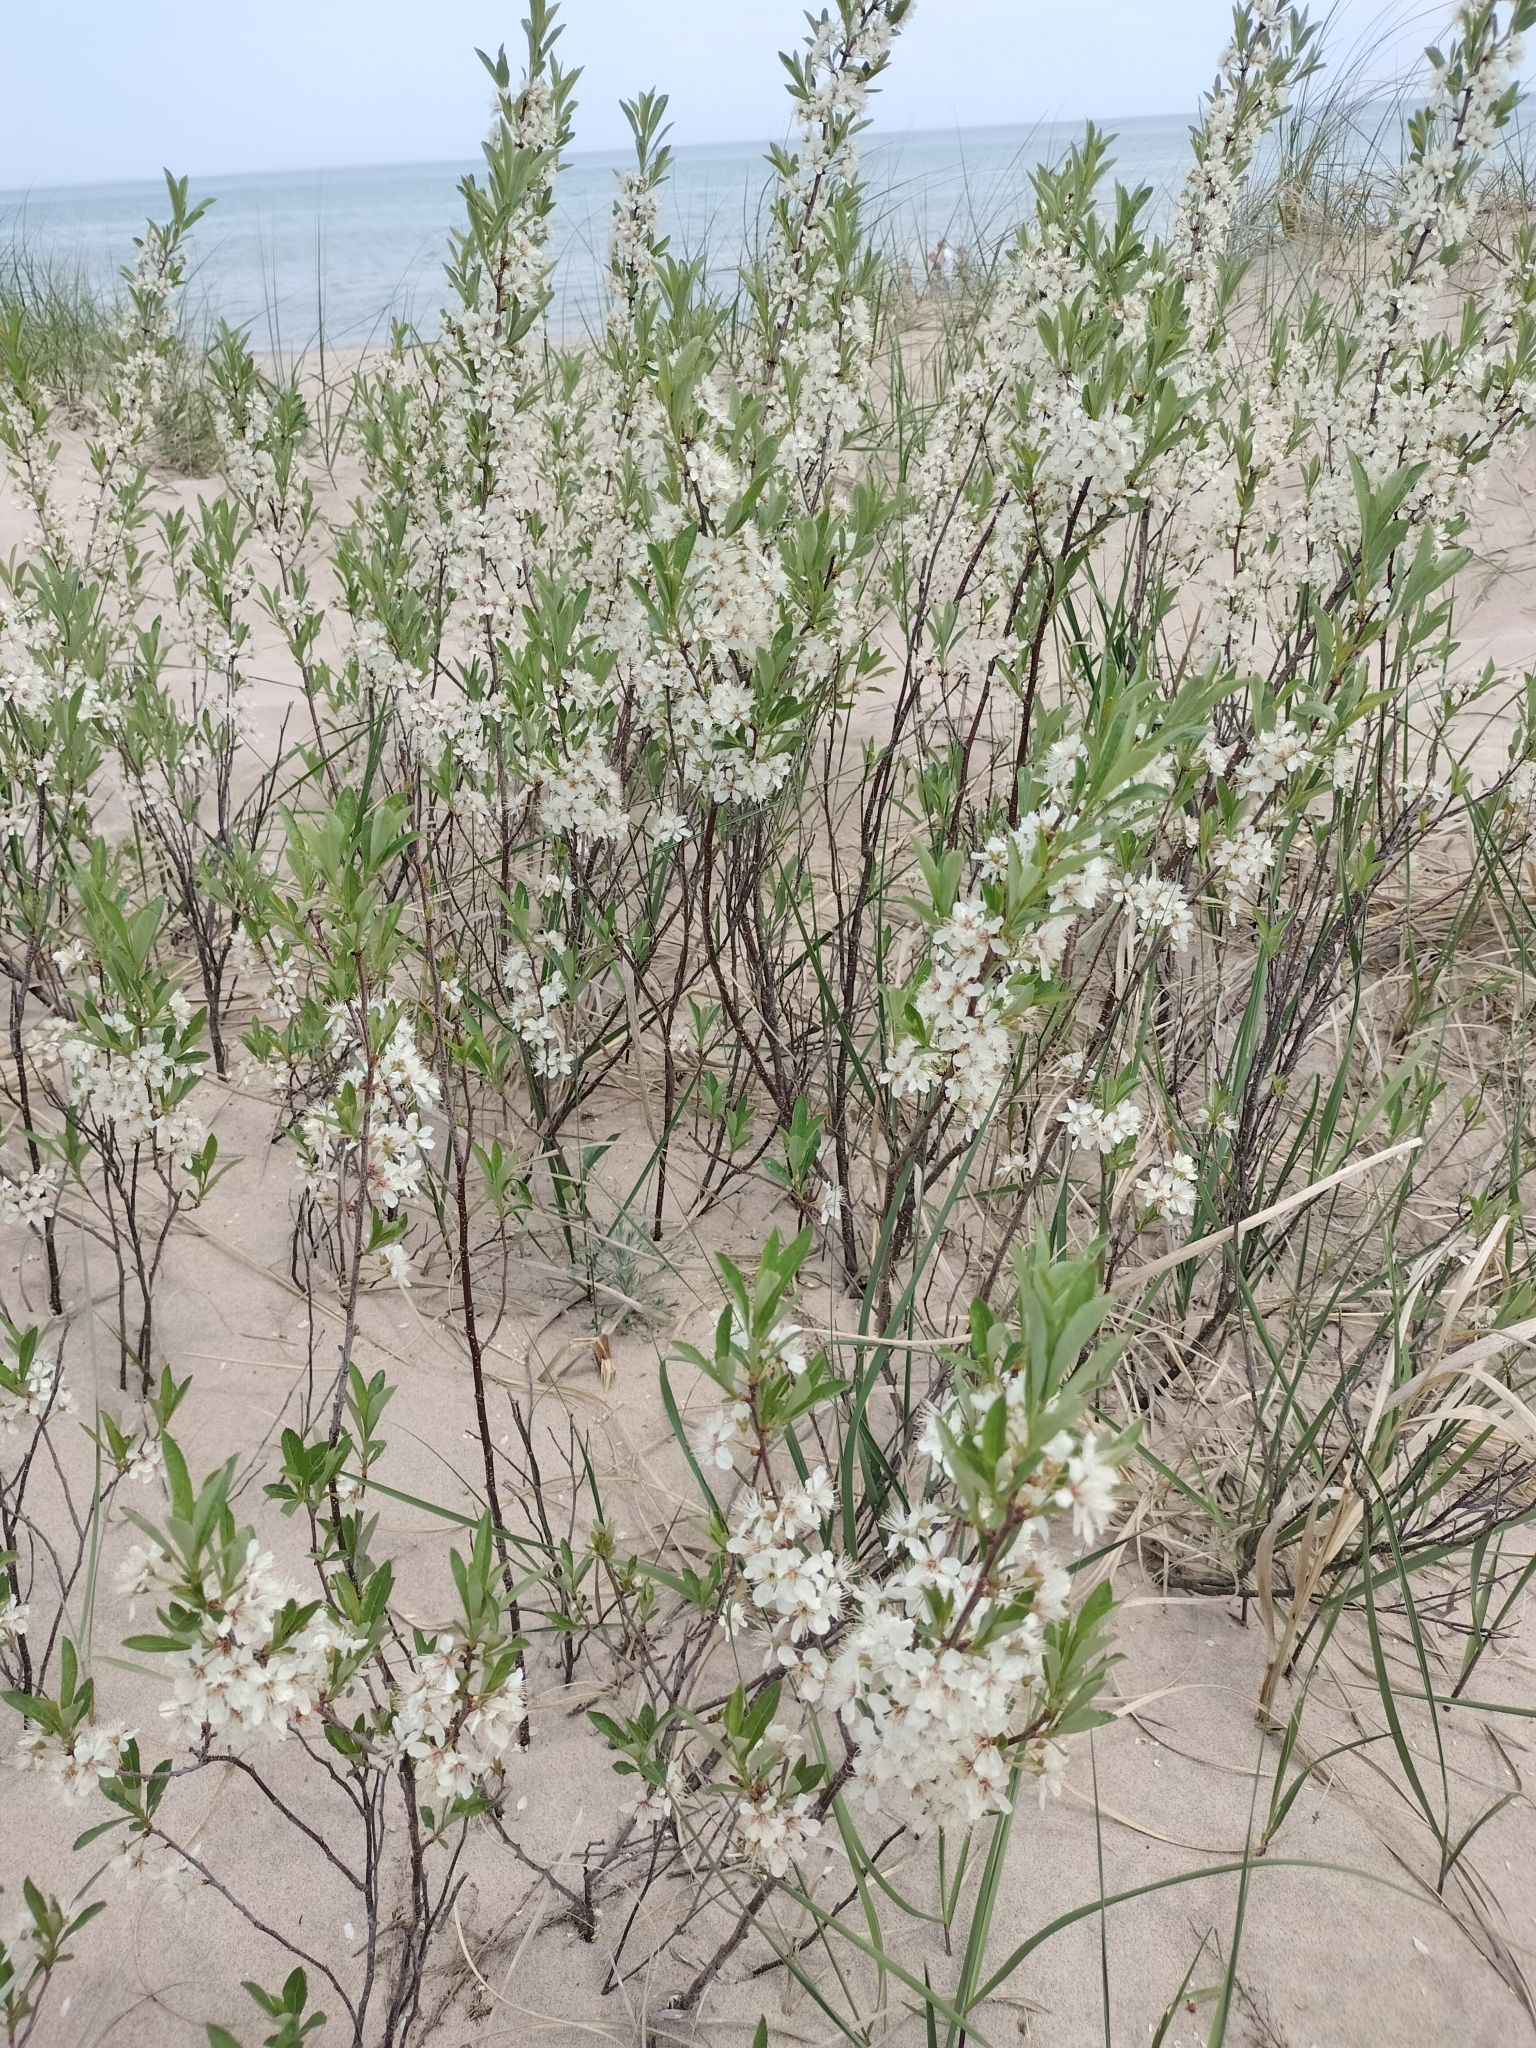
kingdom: Plantae
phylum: Tracheophyta
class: Magnoliopsida
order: Rosales
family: Rosaceae
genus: Prunus
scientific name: Prunus pumila
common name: Dwarf cherry
